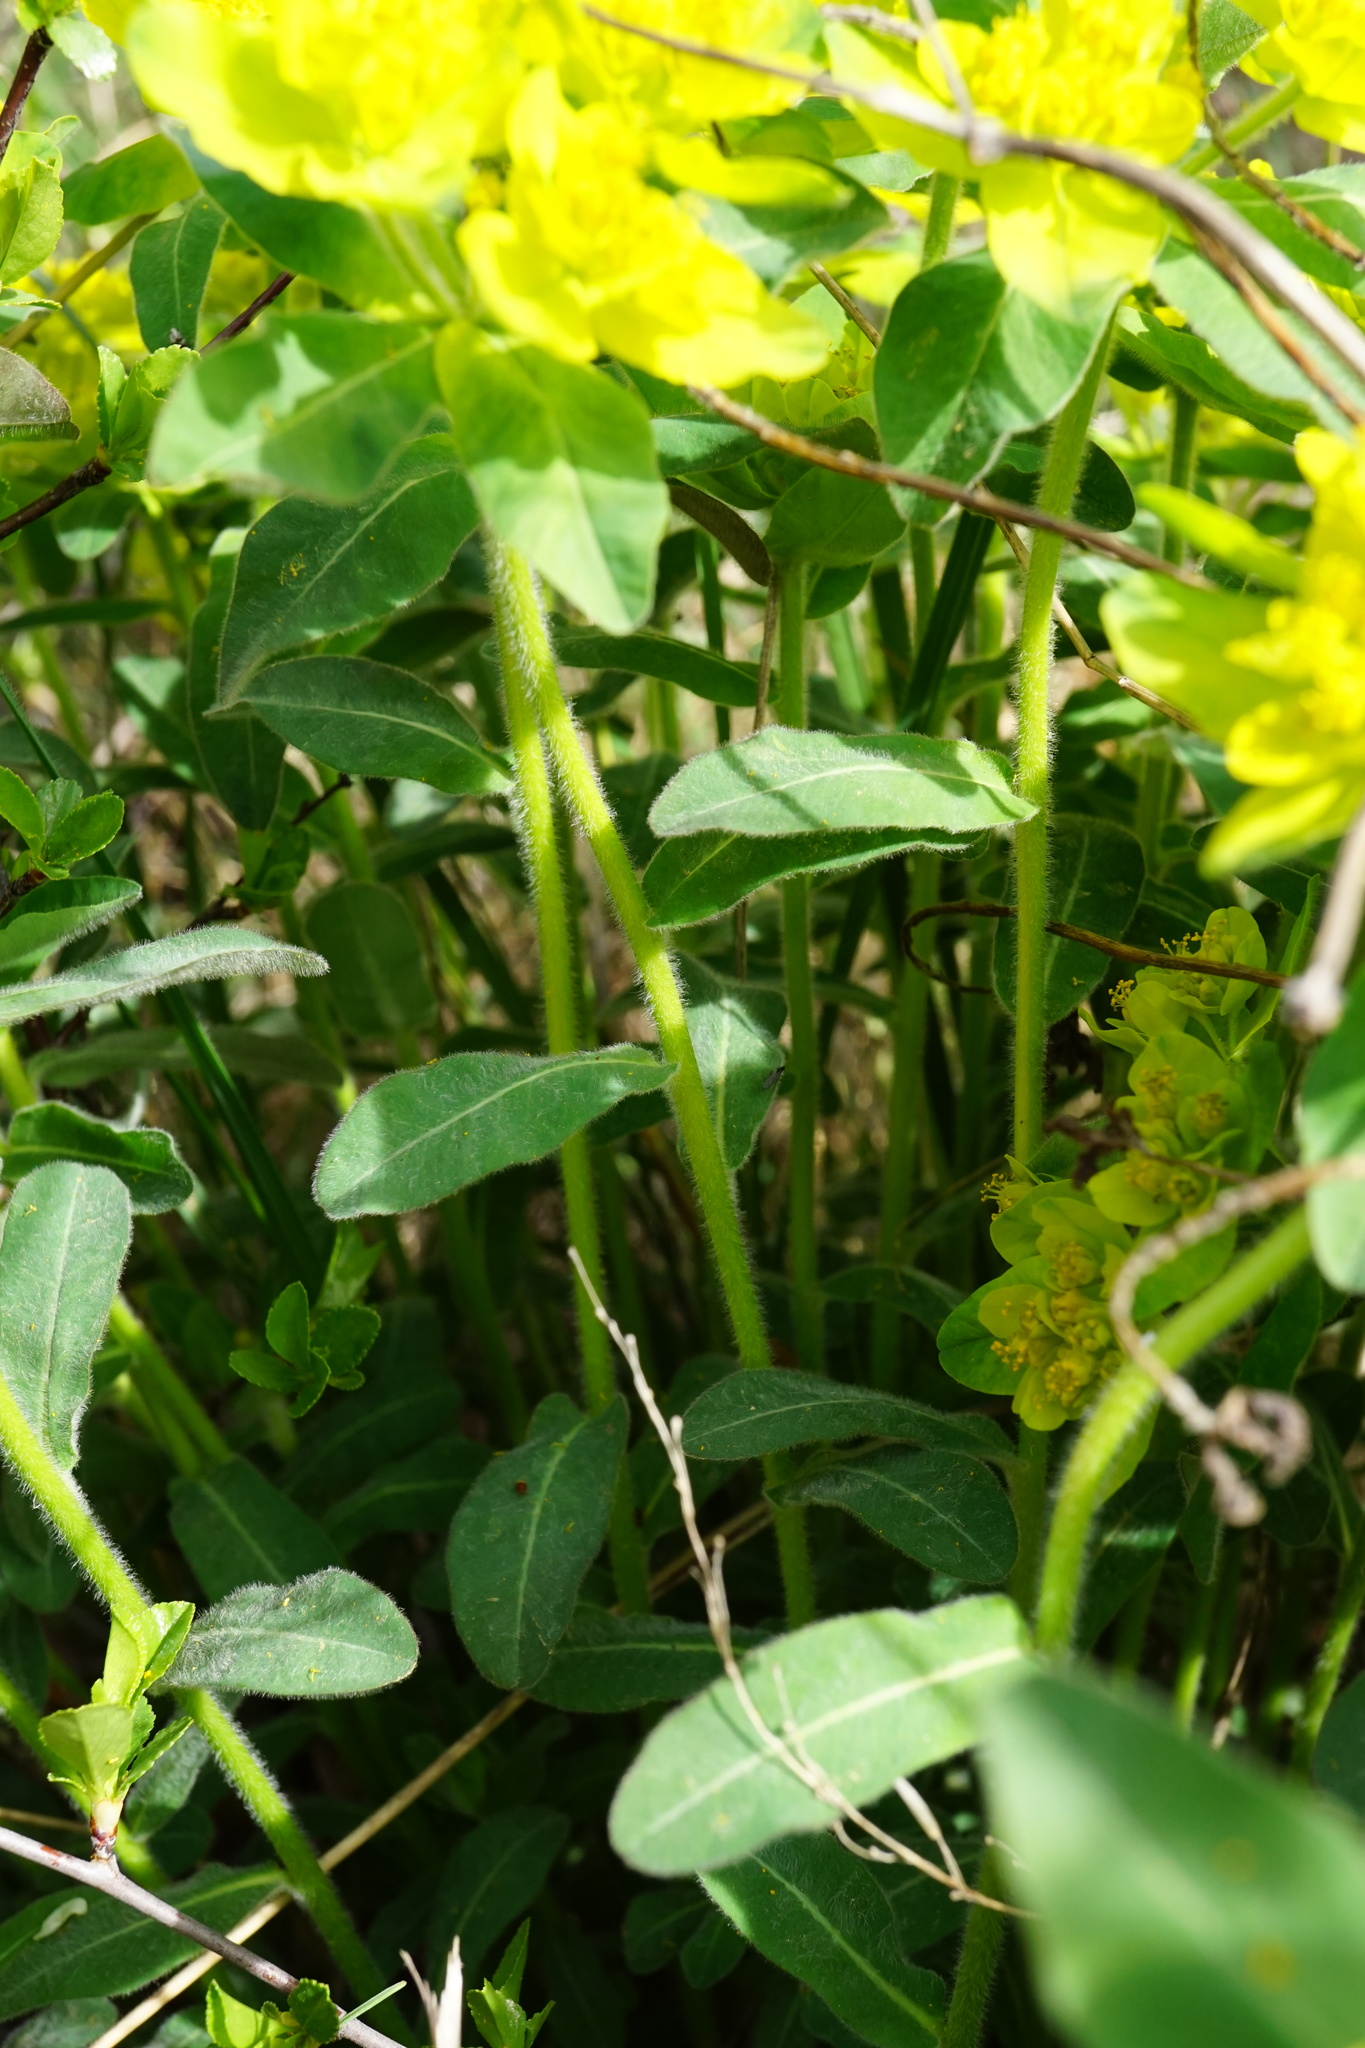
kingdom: Plantae
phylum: Tracheophyta
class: Magnoliopsida
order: Malpighiales
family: Euphorbiaceae
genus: Euphorbia
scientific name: Euphorbia epithymoides
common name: Cushion spurge
